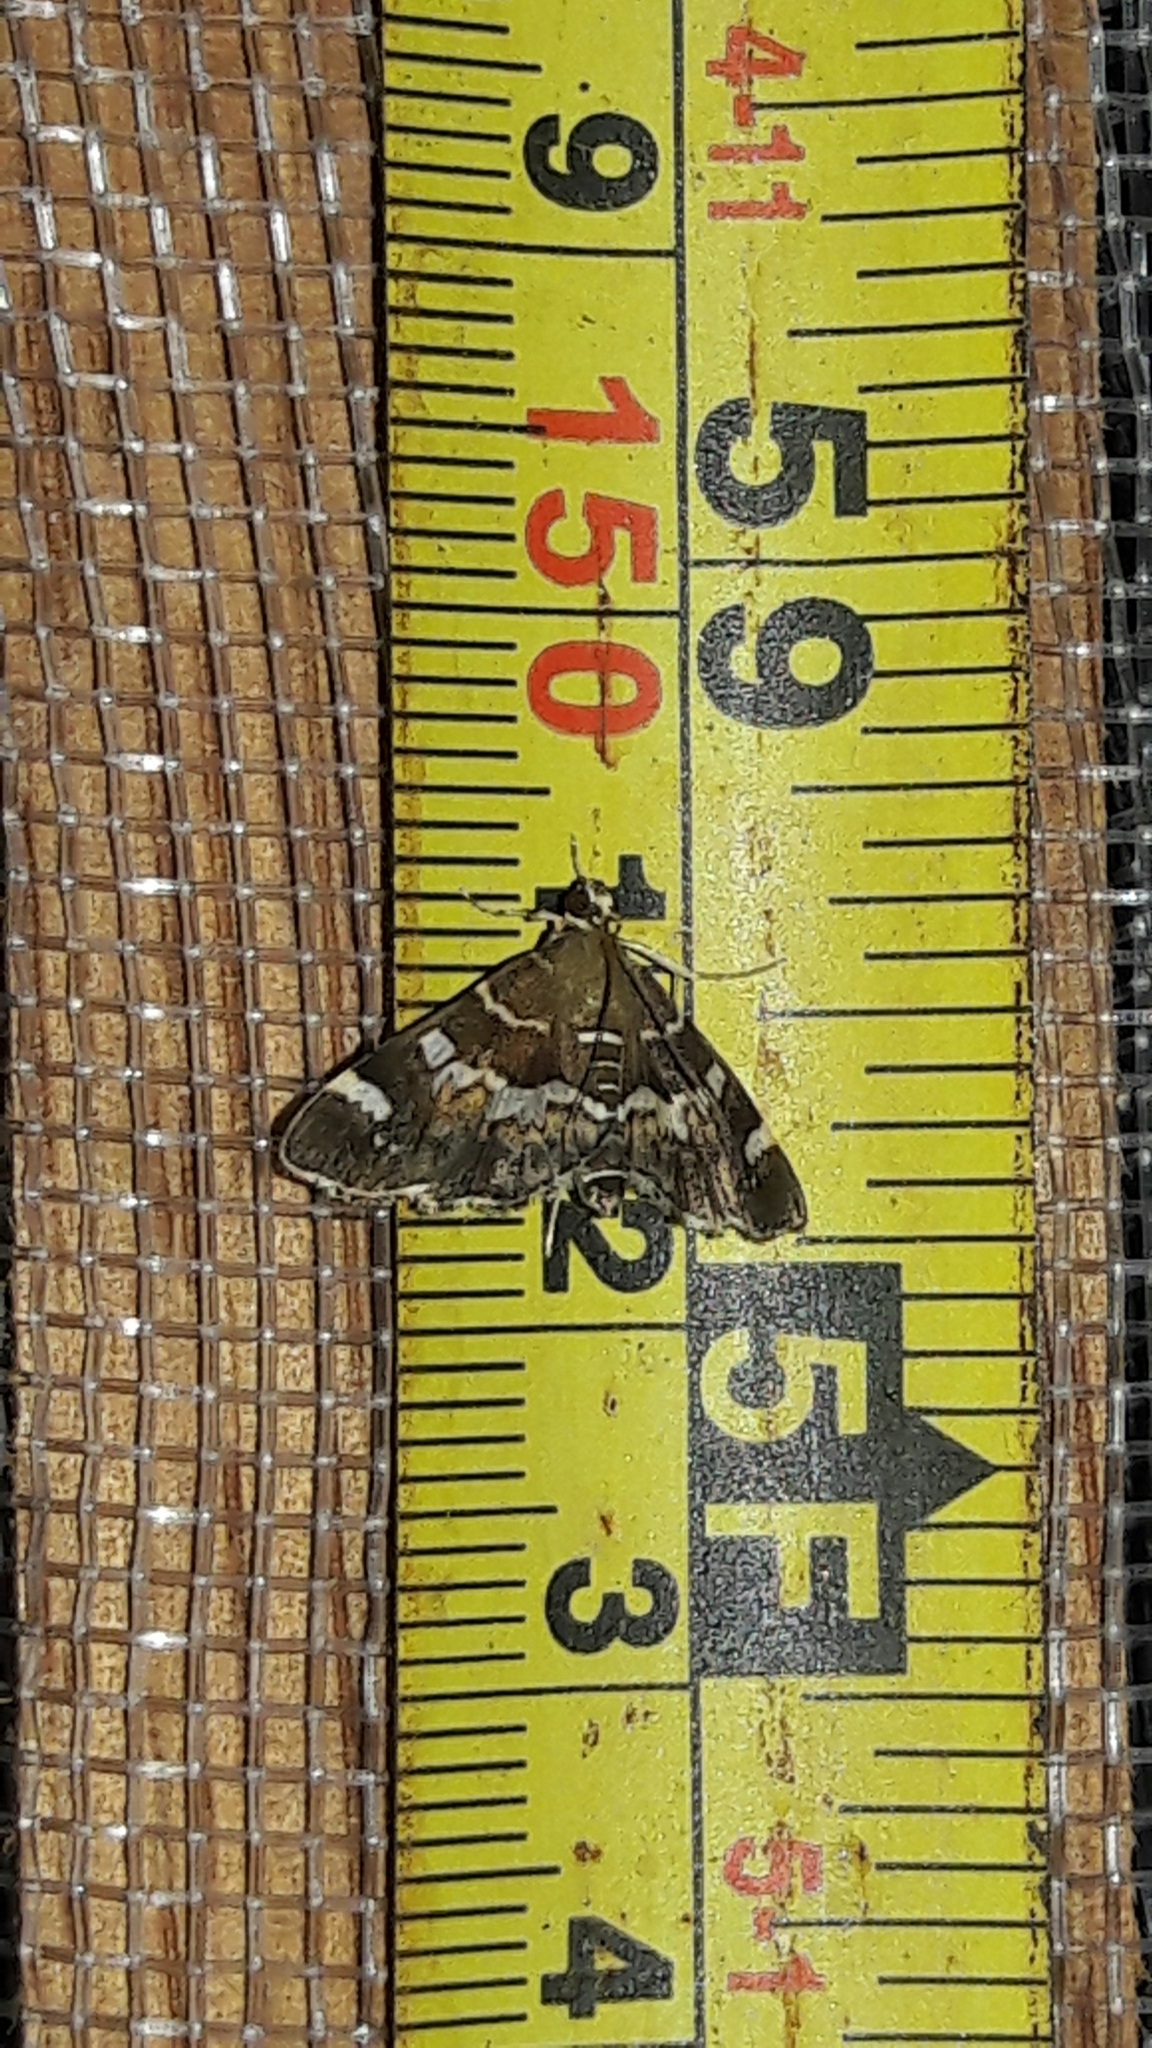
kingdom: Animalia
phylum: Arthropoda
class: Insecta
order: Lepidoptera
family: Crambidae
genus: Hymenia
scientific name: Hymenia perspectalis
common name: Spotted beet webworm
